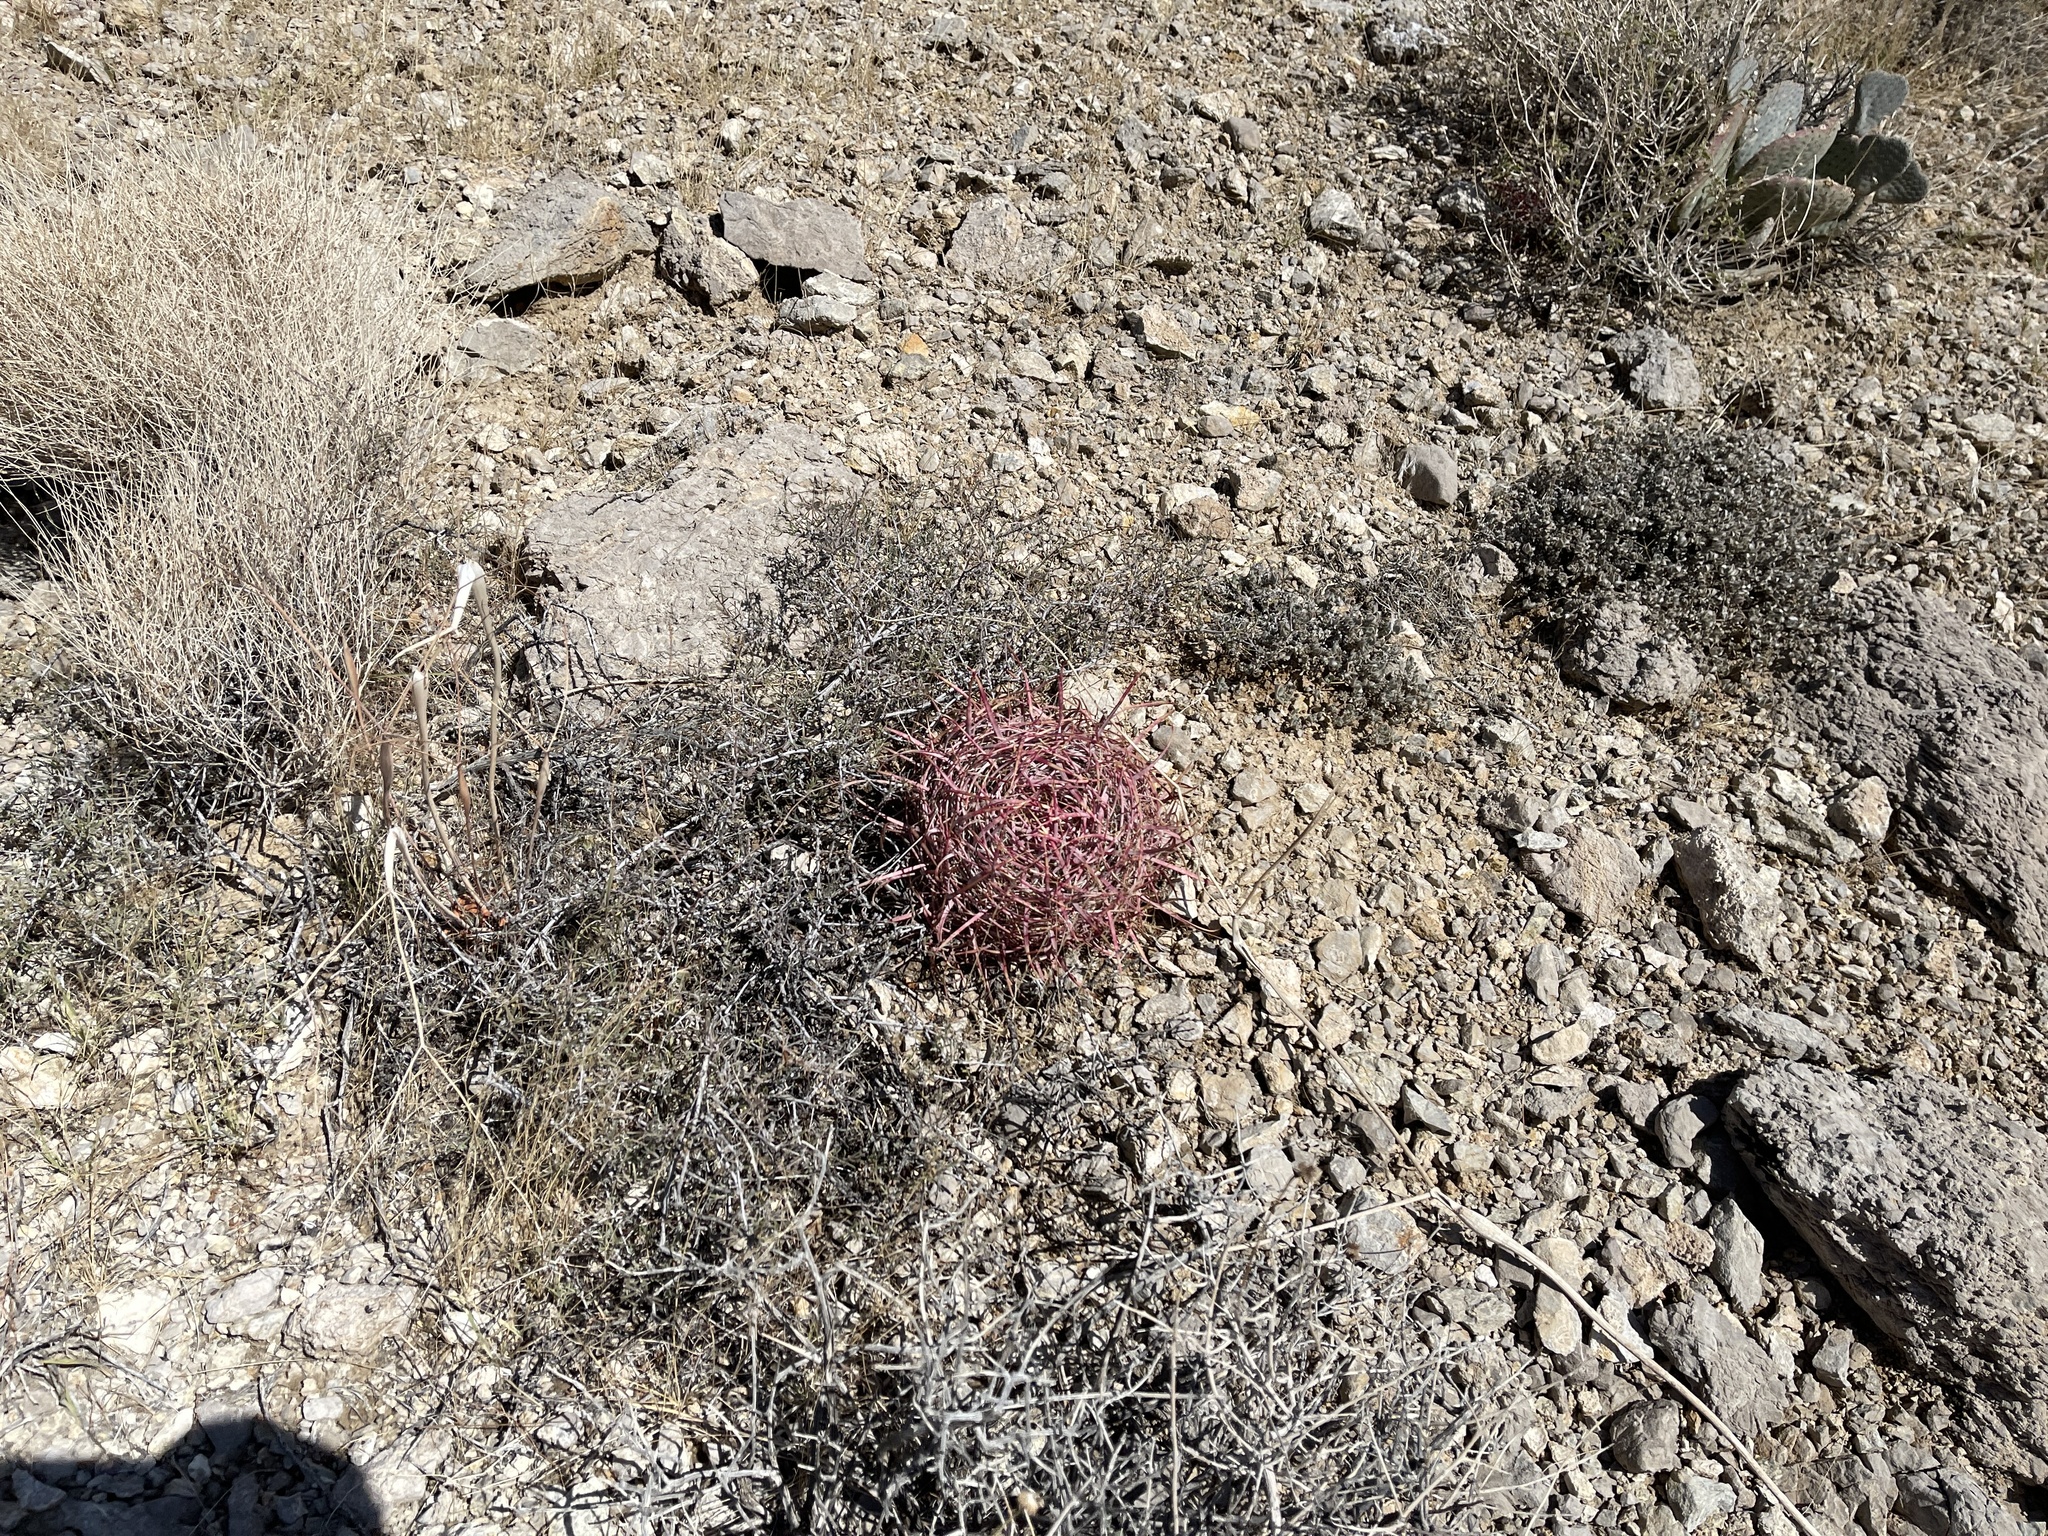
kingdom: Plantae
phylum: Tracheophyta
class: Magnoliopsida
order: Caryophyllales
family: Cactaceae
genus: Ferocactus
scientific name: Ferocactus cylindraceus
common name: California barrel cactus
